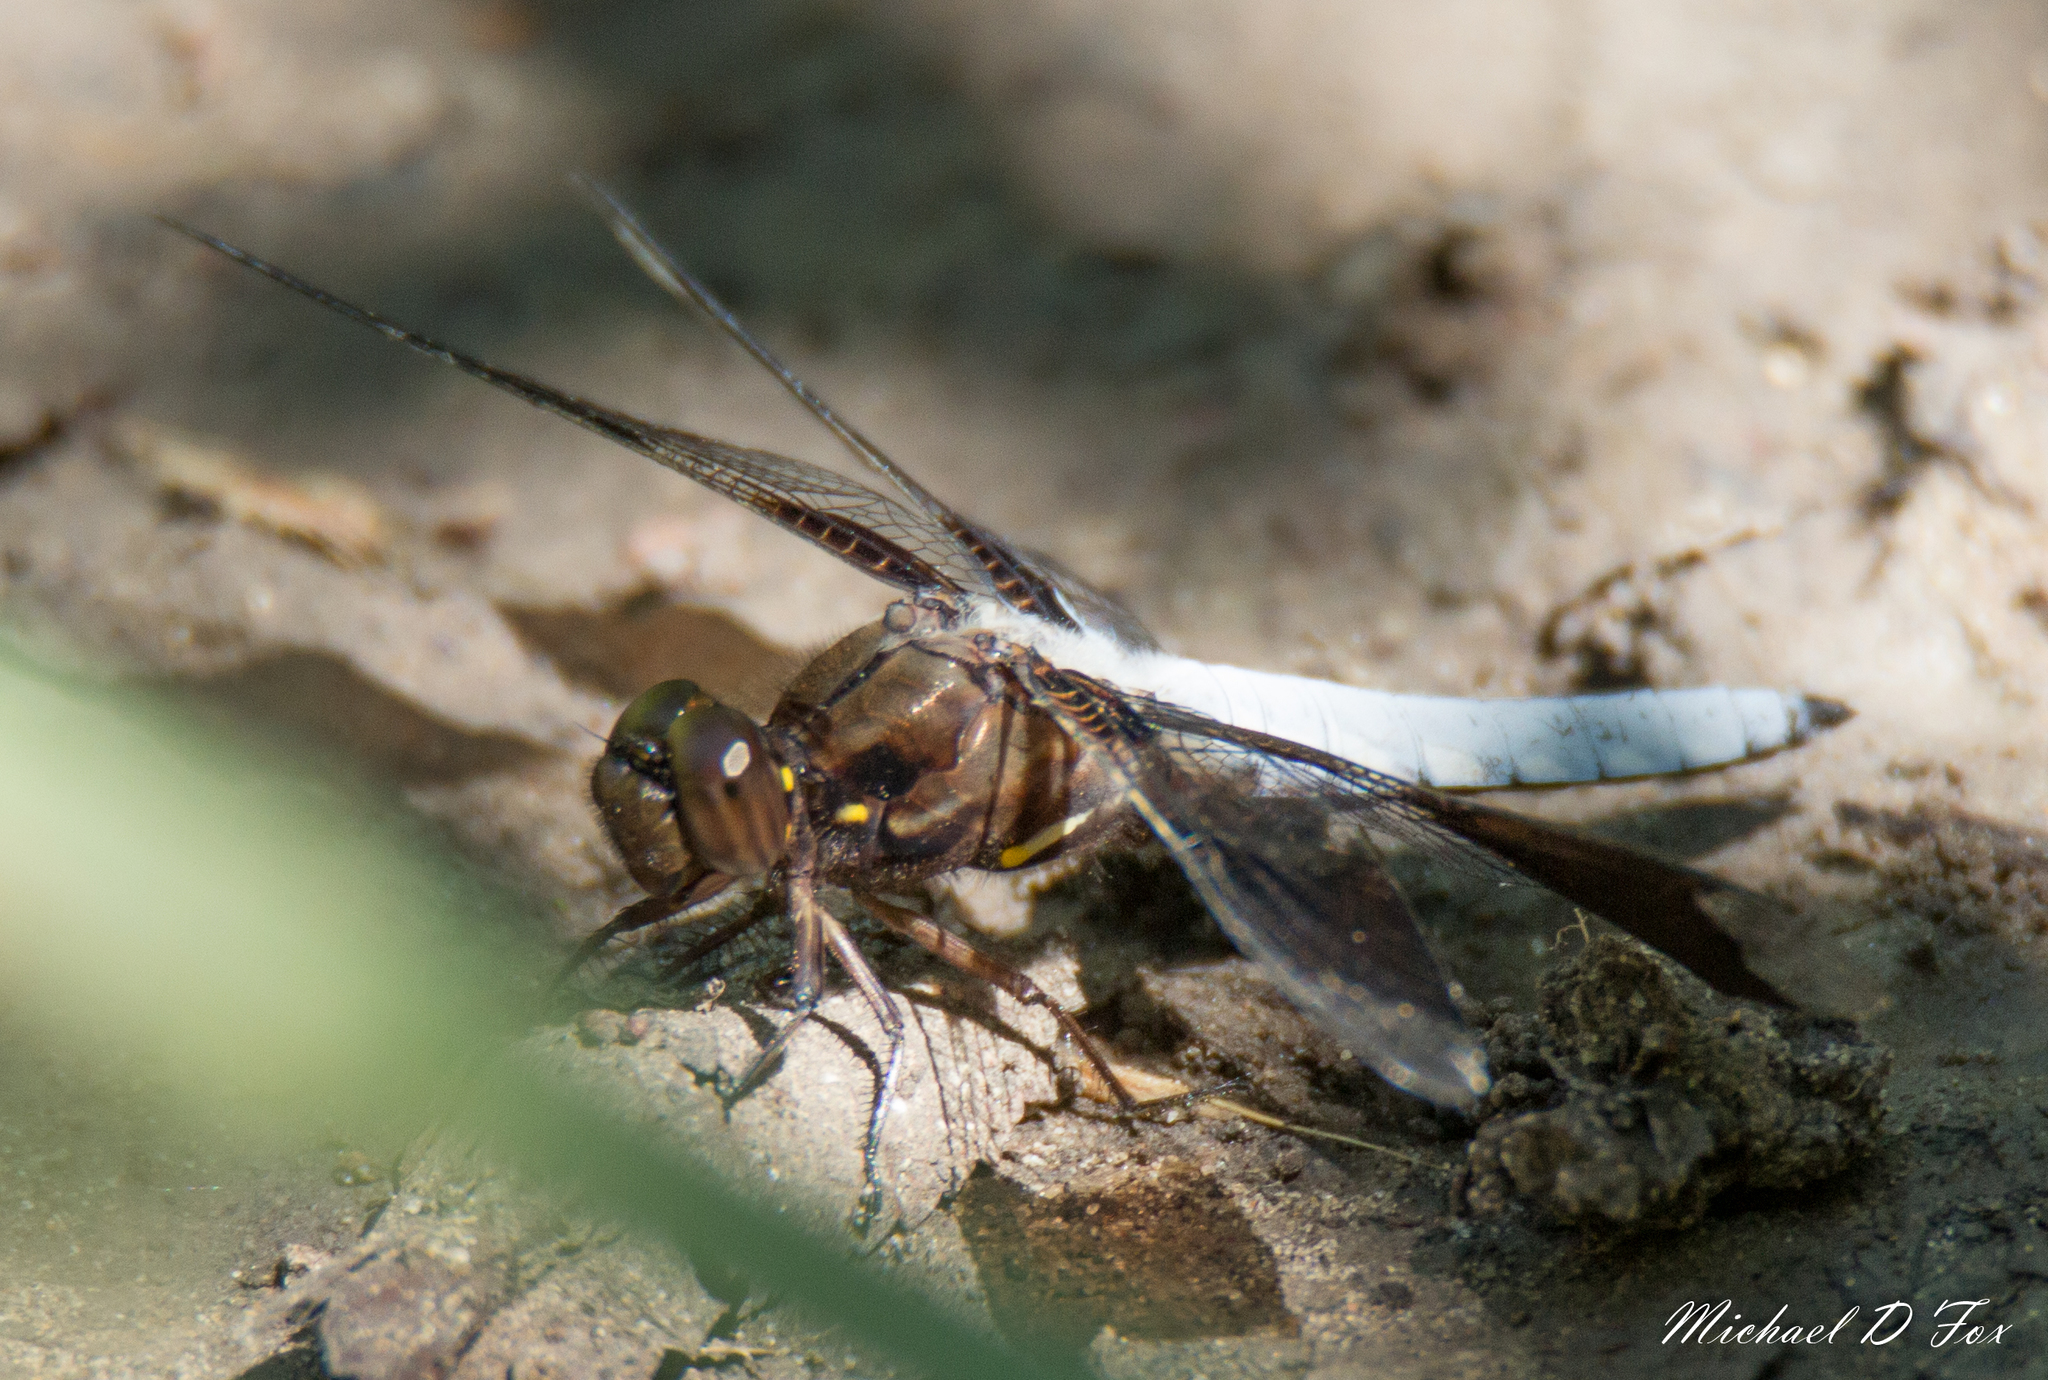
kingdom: Animalia
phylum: Arthropoda
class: Insecta
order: Odonata
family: Libellulidae
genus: Plathemis
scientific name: Plathemis lydia
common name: Common whitetail
